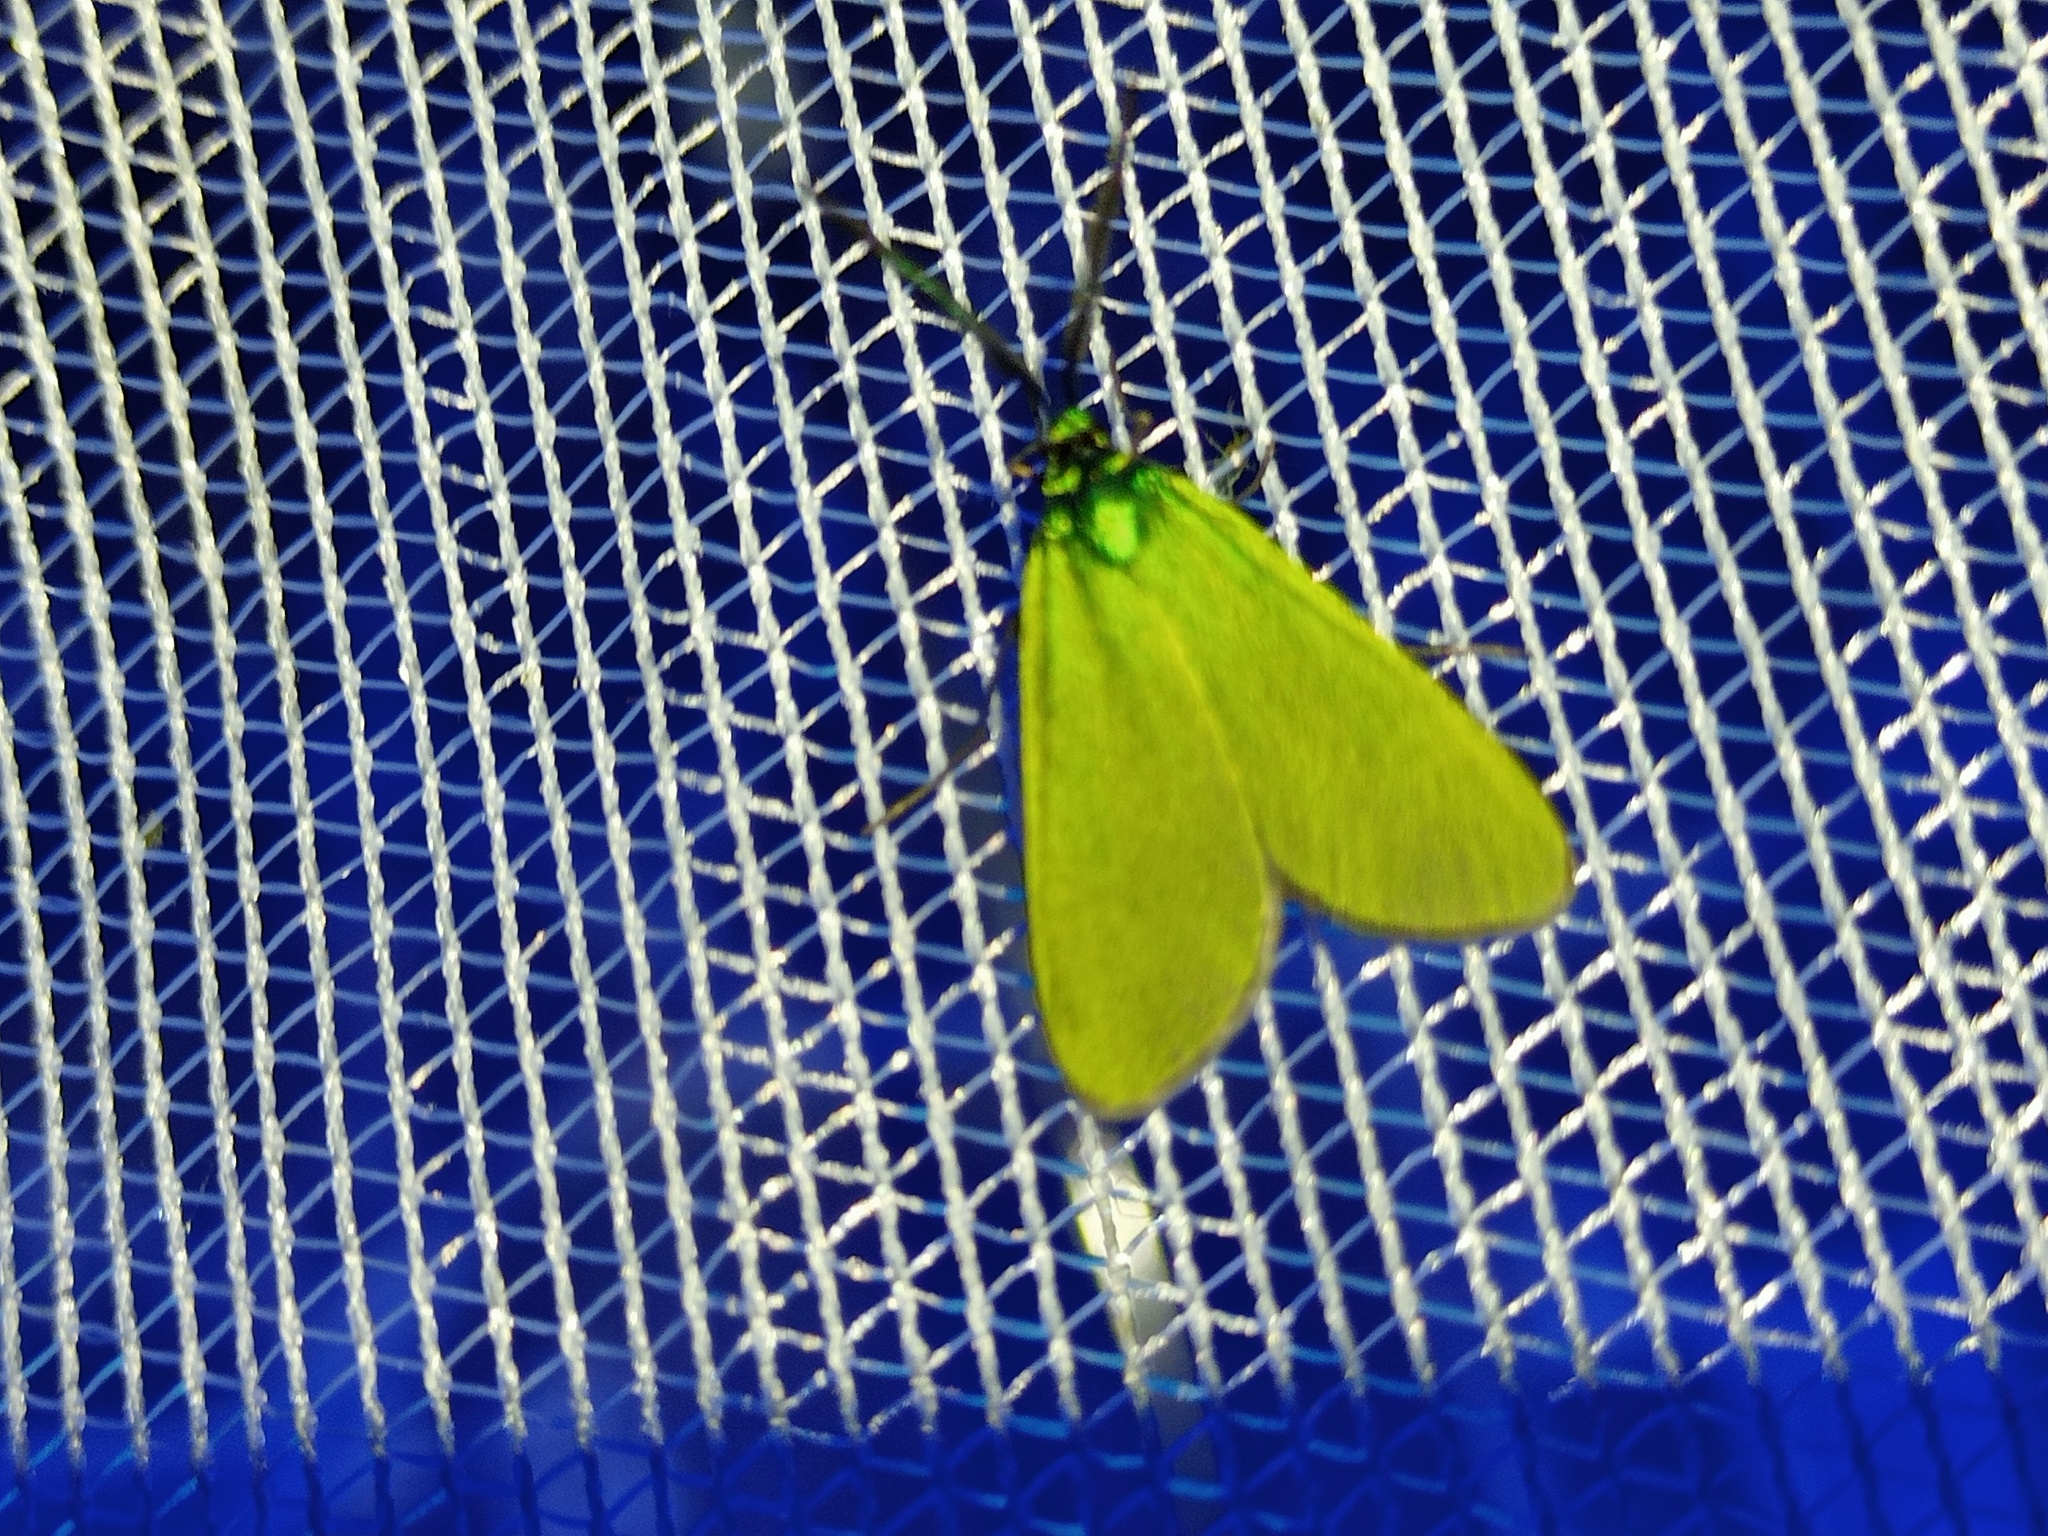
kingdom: Animalia
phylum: Arthropoda
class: Insecta
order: Lepidoptera
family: Zygaenidae
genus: Jordanita
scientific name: Jordanita globulariae
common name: Scarce forester
